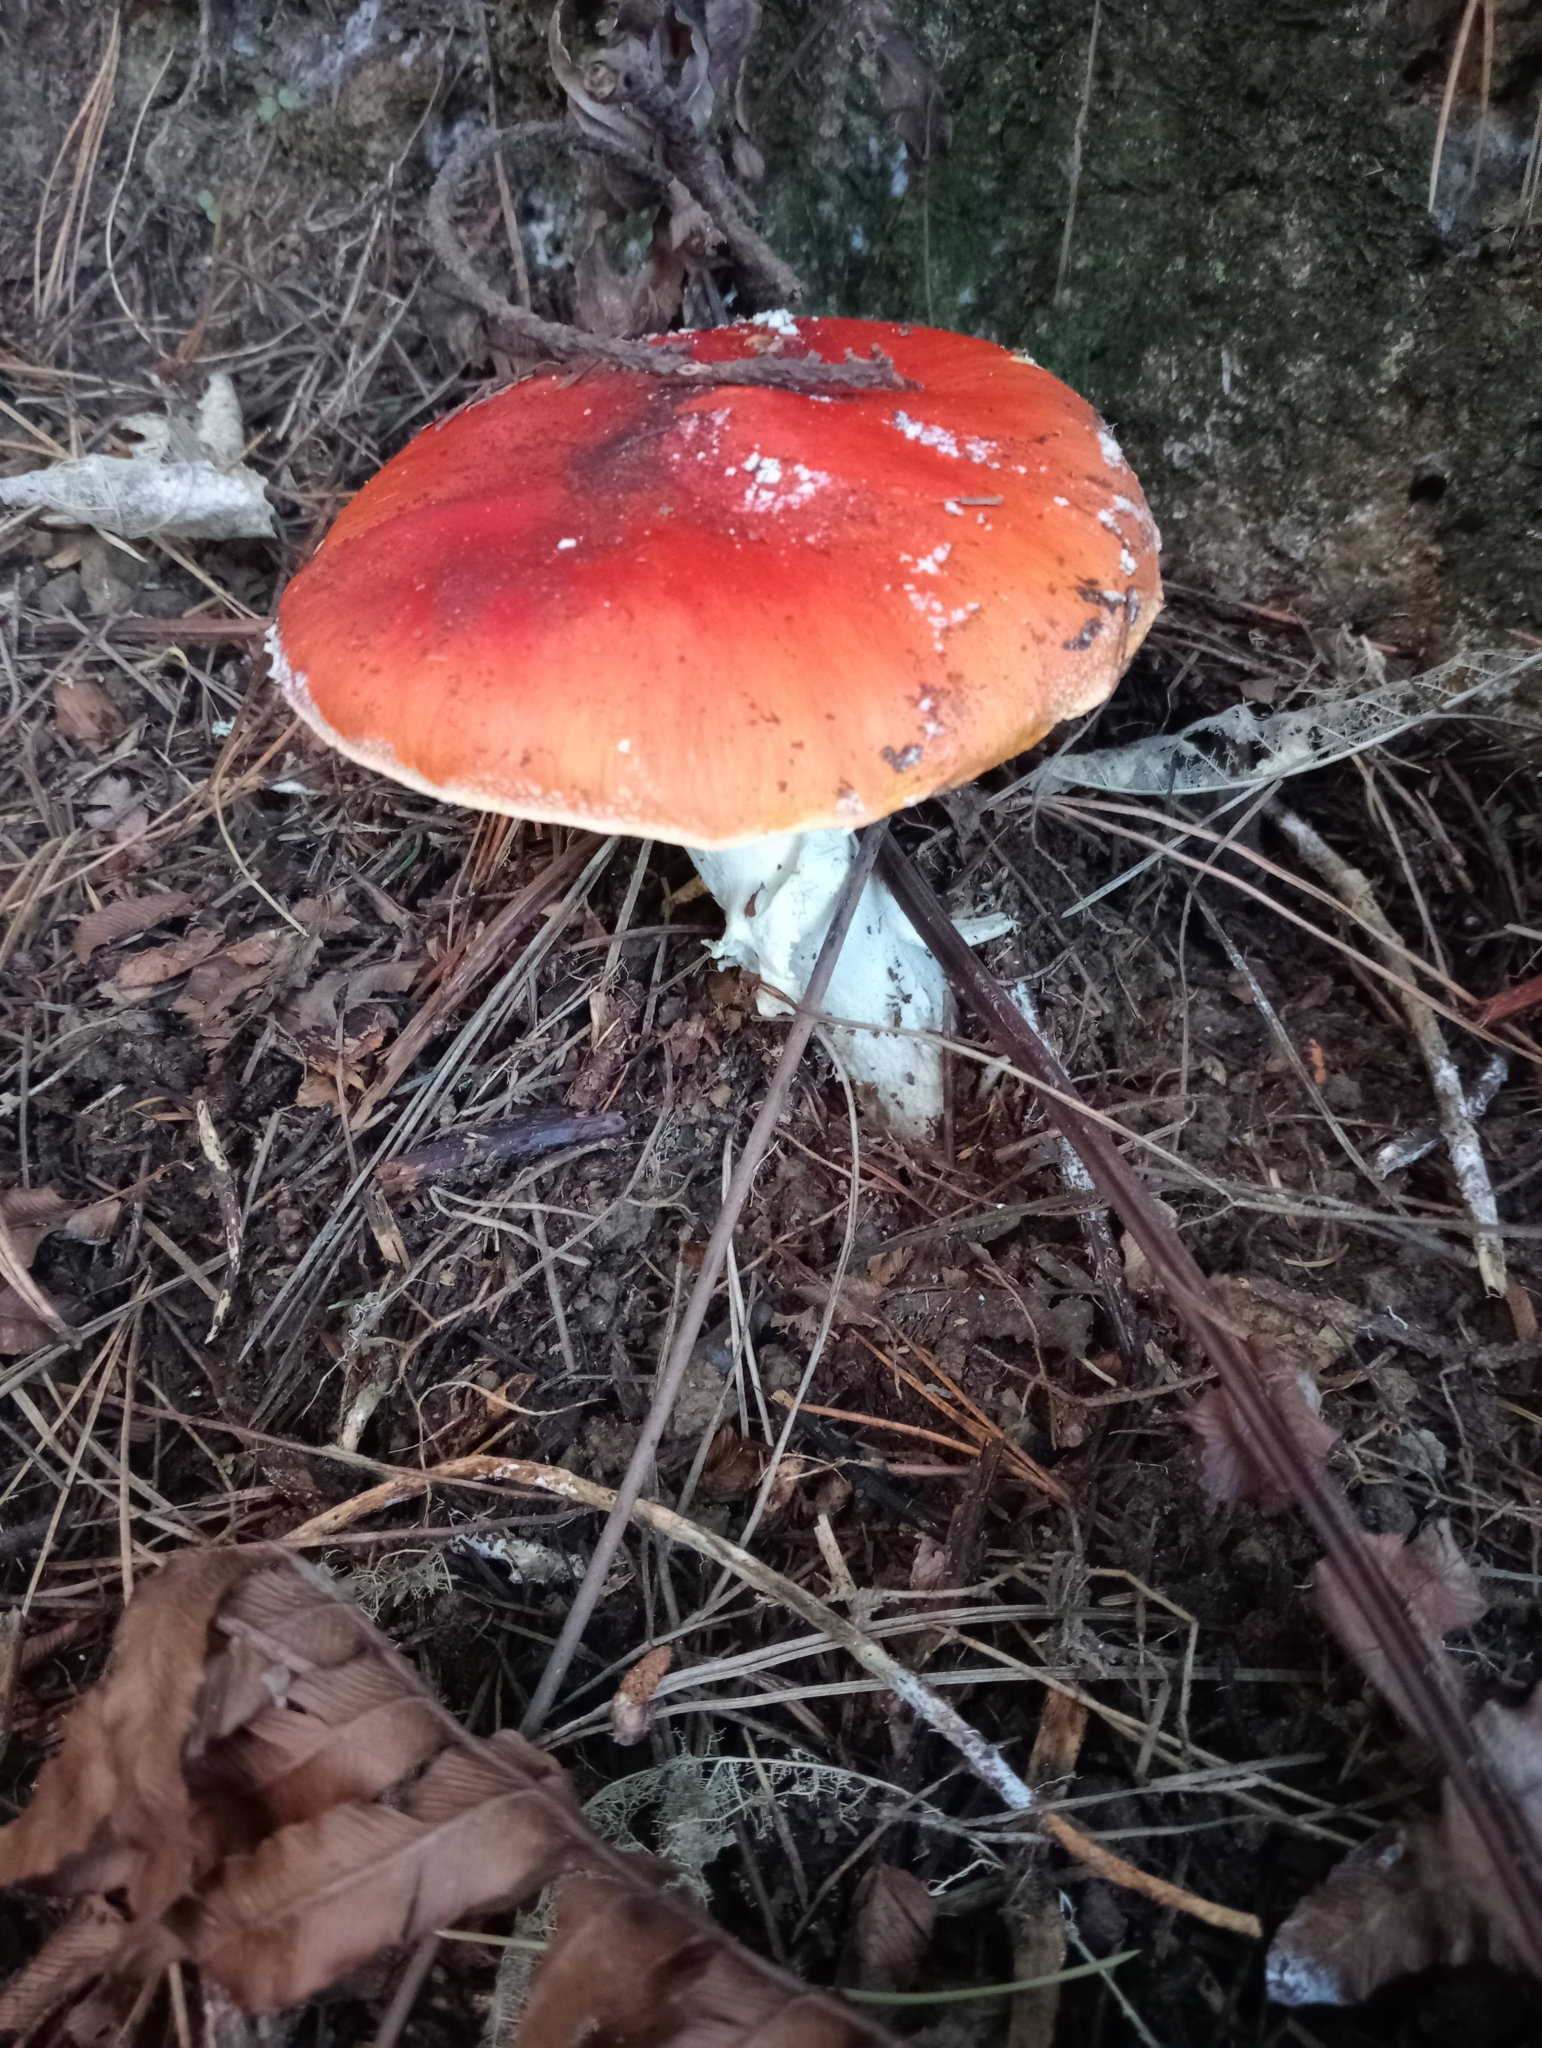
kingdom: Fungi
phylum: Basidiomycota
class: Agaricomycetes
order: Agaricales
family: Amanitaceae
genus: Amanita
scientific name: Amanita muscaria
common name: Fly agaric
